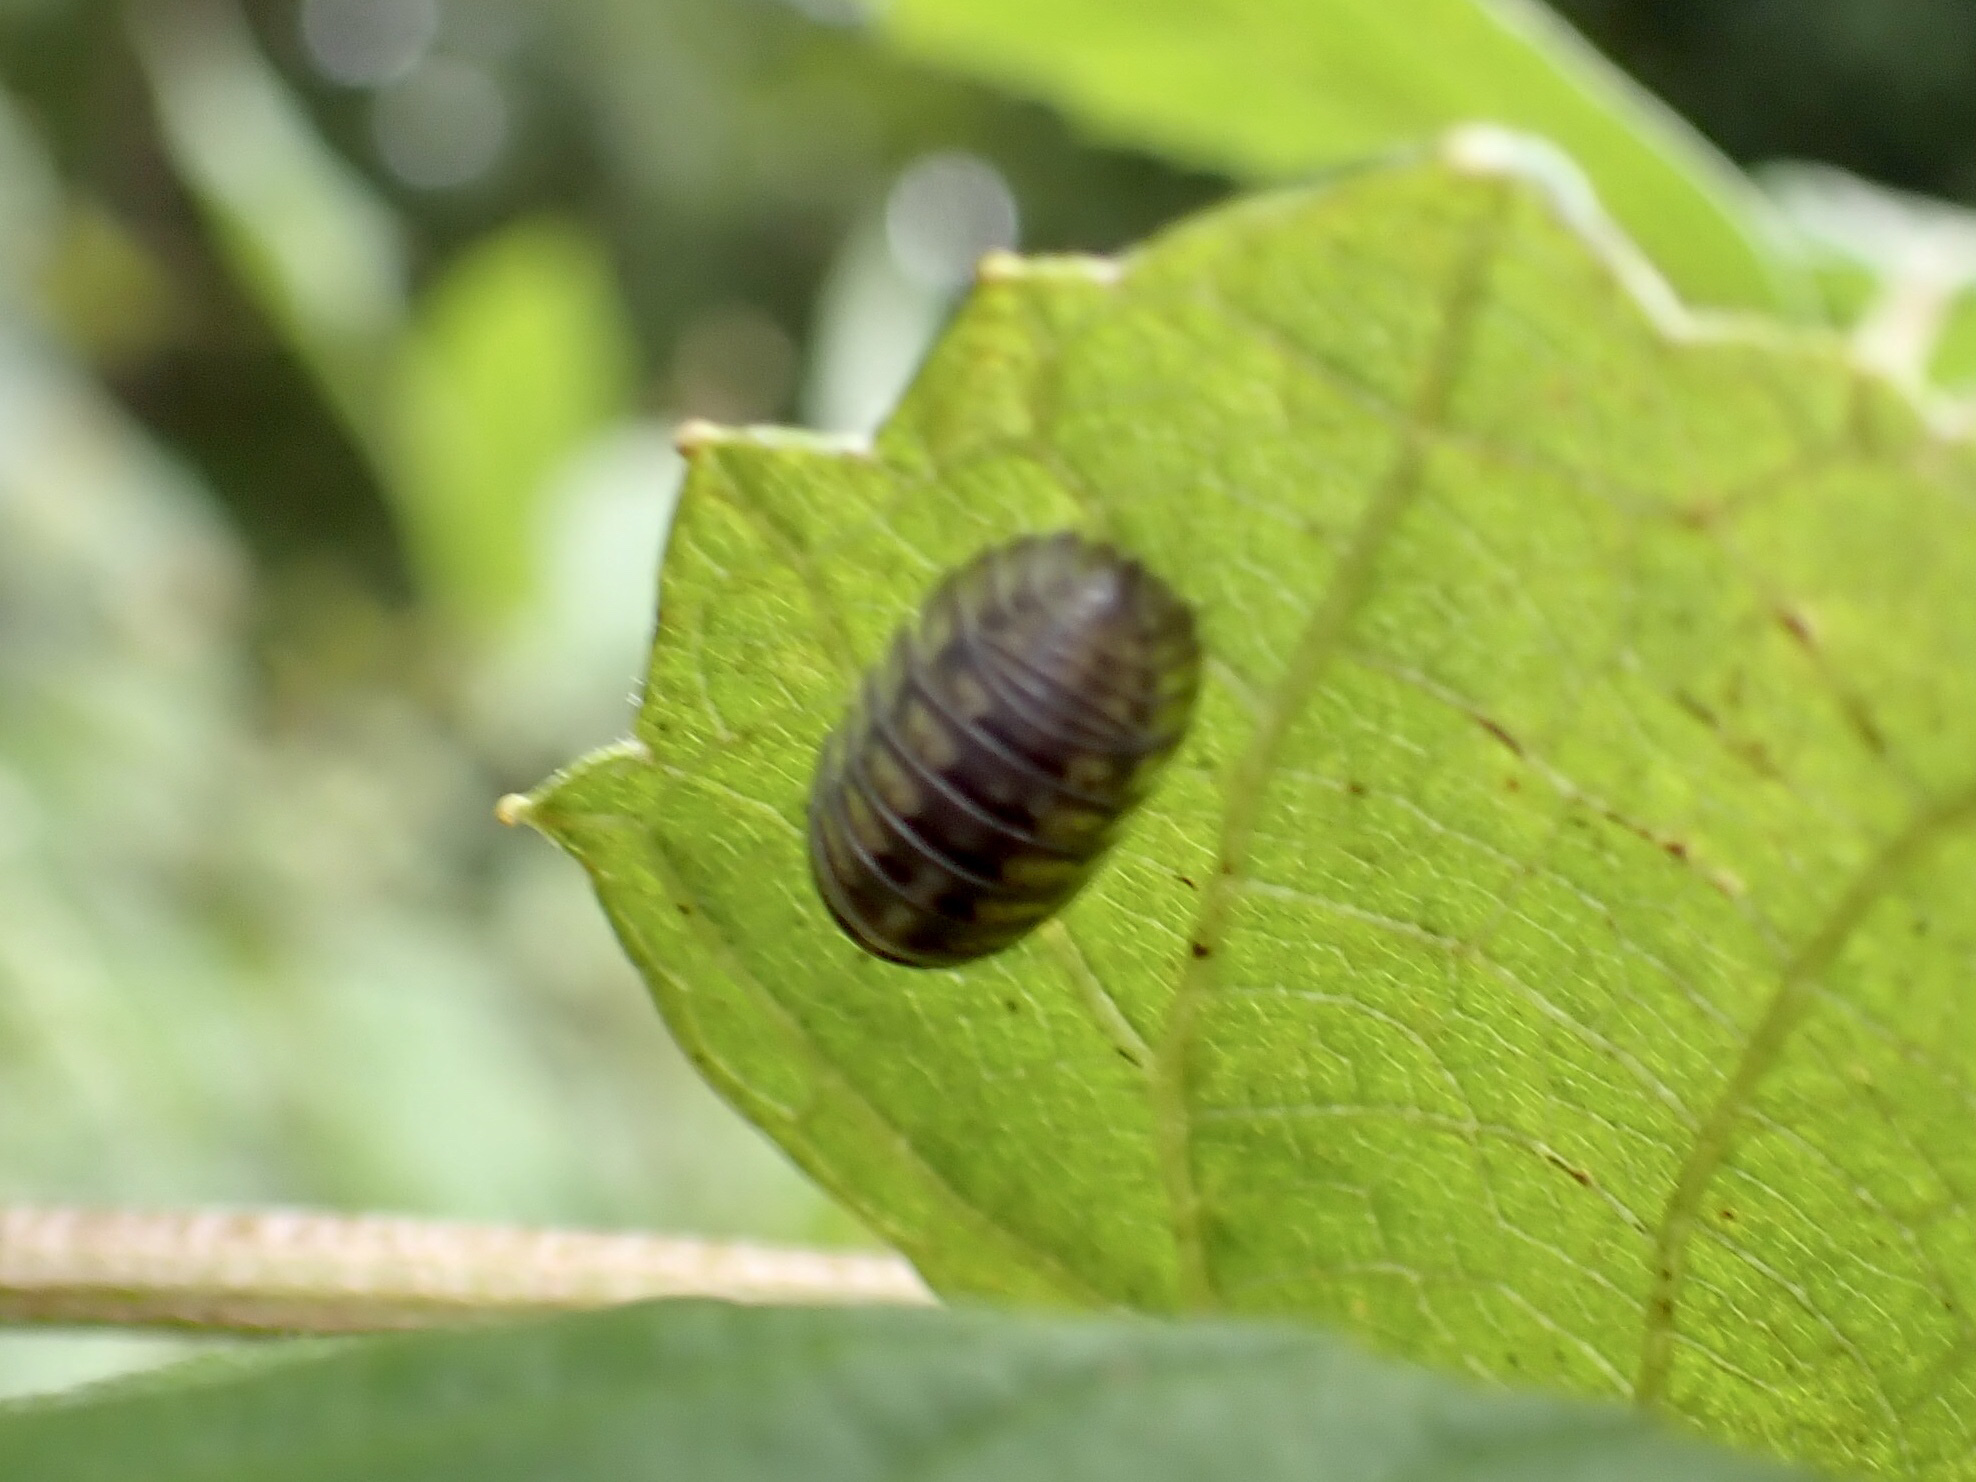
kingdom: Animalia
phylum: Arthropoda
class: Malacostraca
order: Isopoda
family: Armadillidiidae
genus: Armadillidium
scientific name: Armadillidium nasatum
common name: Isopod
